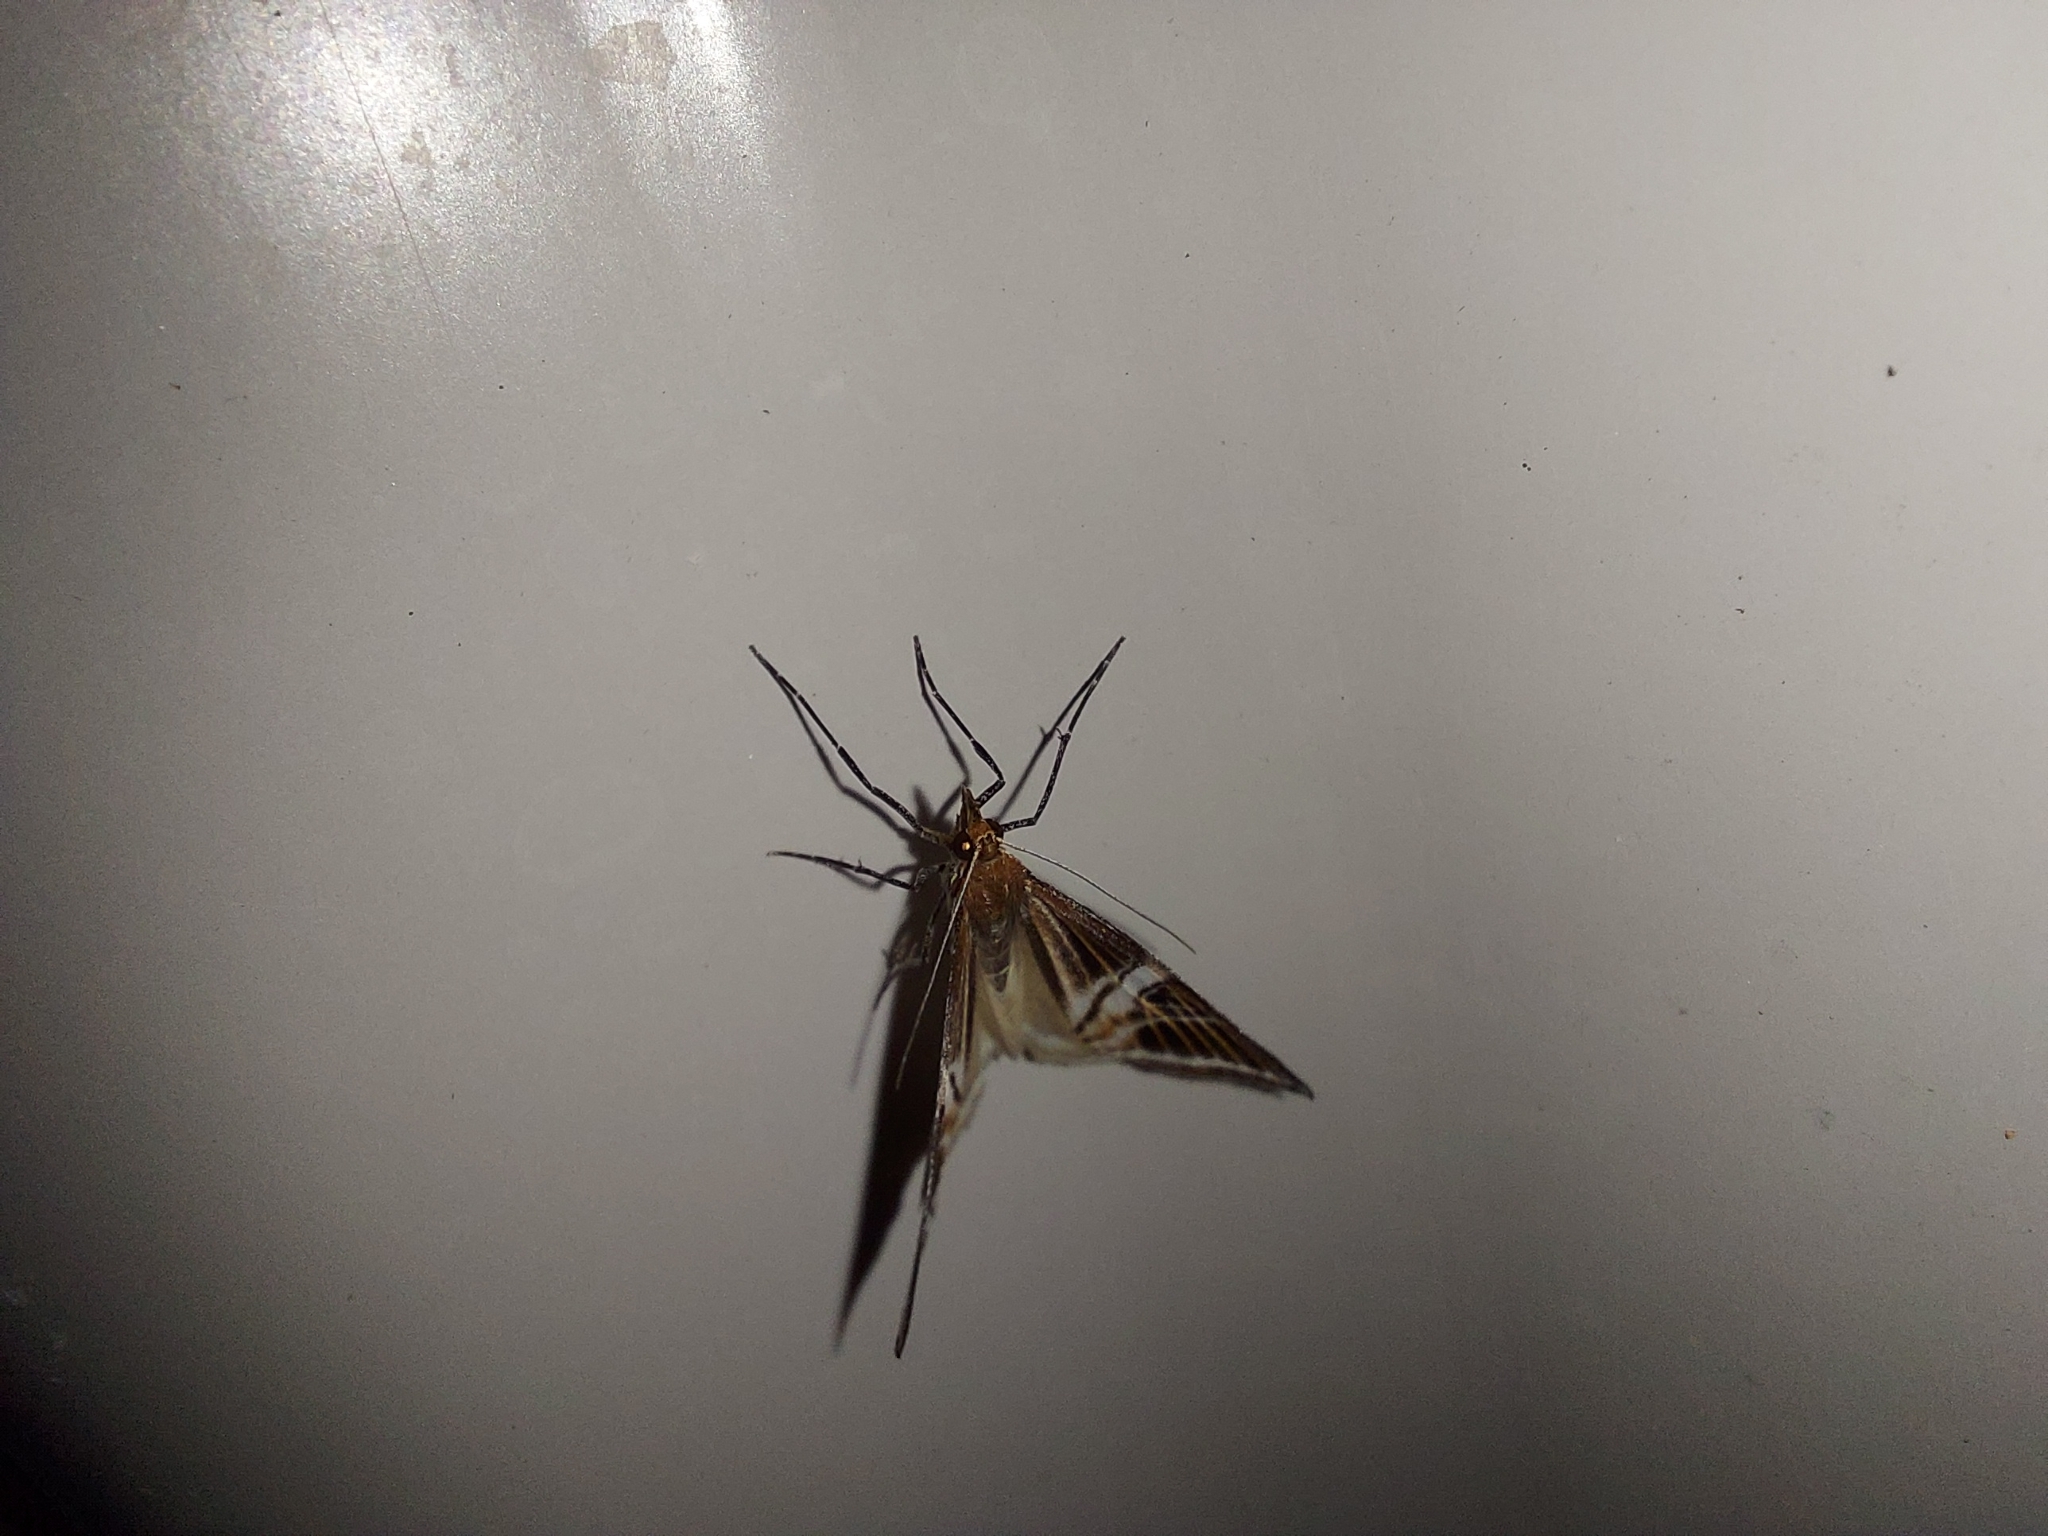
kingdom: Animalia
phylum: Arthropoda
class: Insecta
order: Lepidoptera
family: Geometridae
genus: Phrataria
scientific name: Phrataria transcissata
